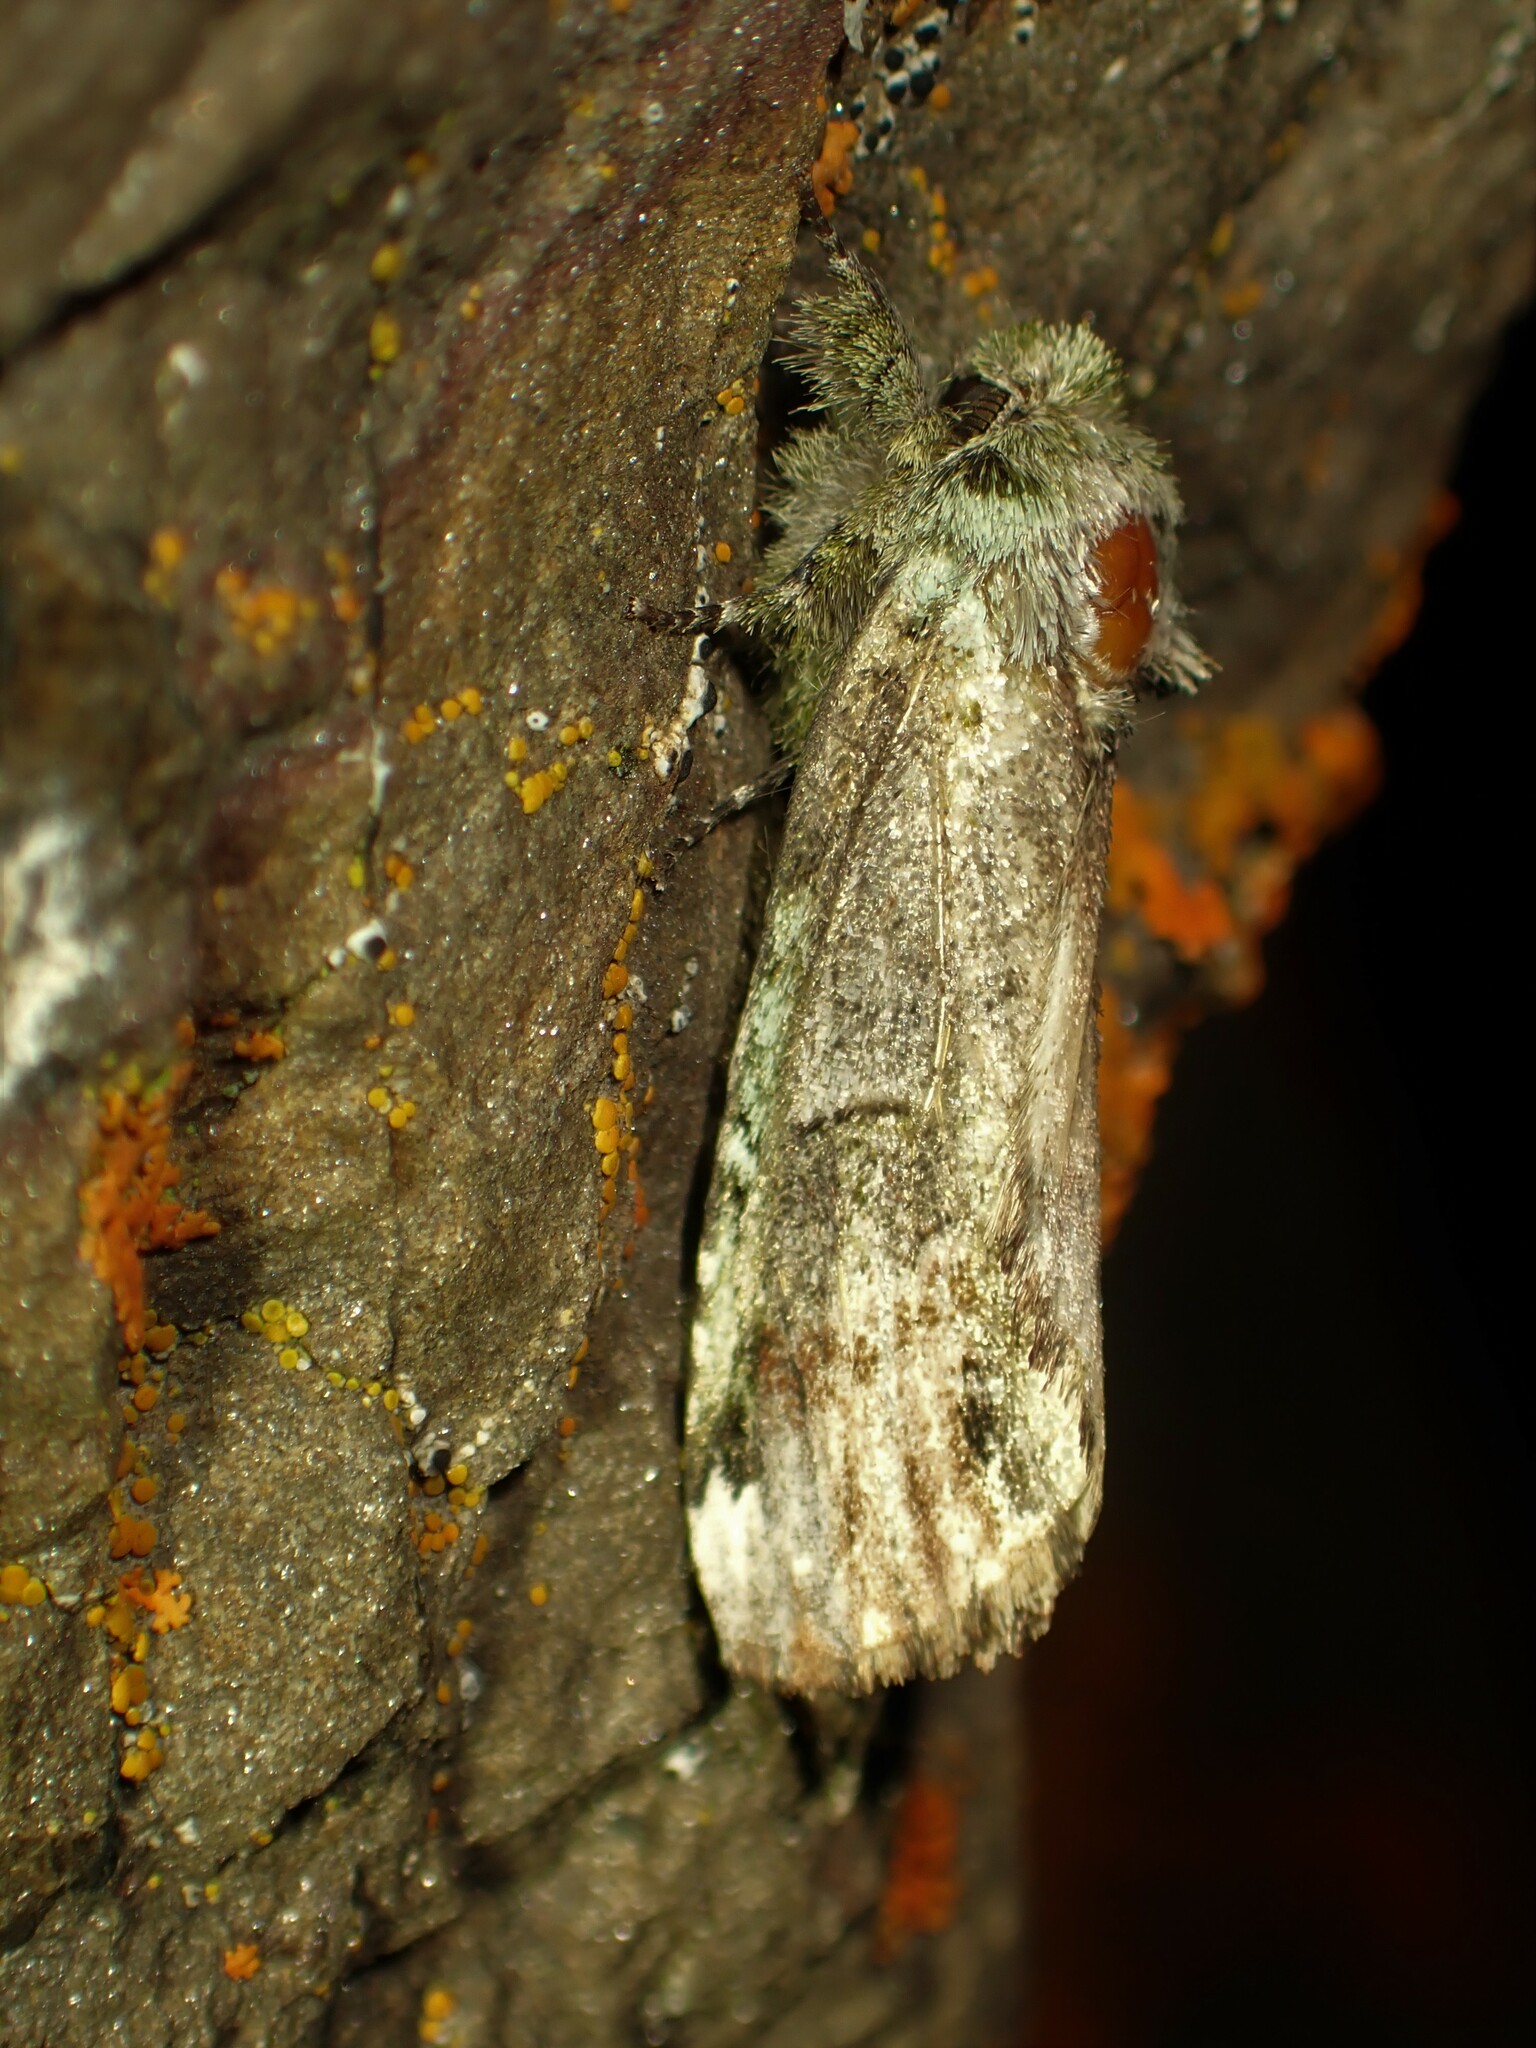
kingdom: Animalia
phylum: Arthropoda
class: Insecta
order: Lepidoptera
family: Notodontidae
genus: Schizura
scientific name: Schizura
